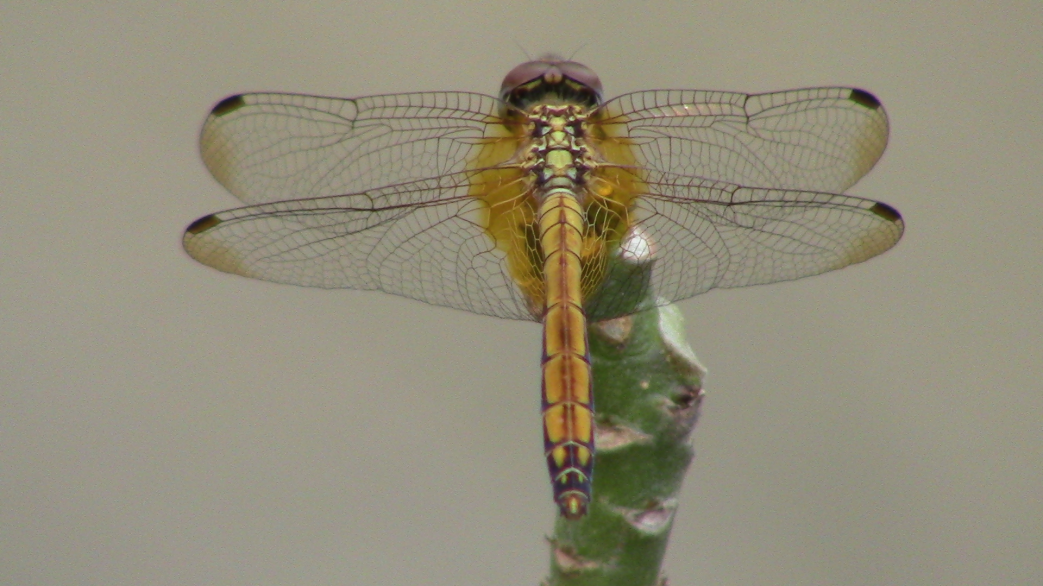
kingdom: Animalia
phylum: Arthropoda
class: Insecta
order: Odonata
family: Libellulidae
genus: Trithemis
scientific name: Trithemis aurora
